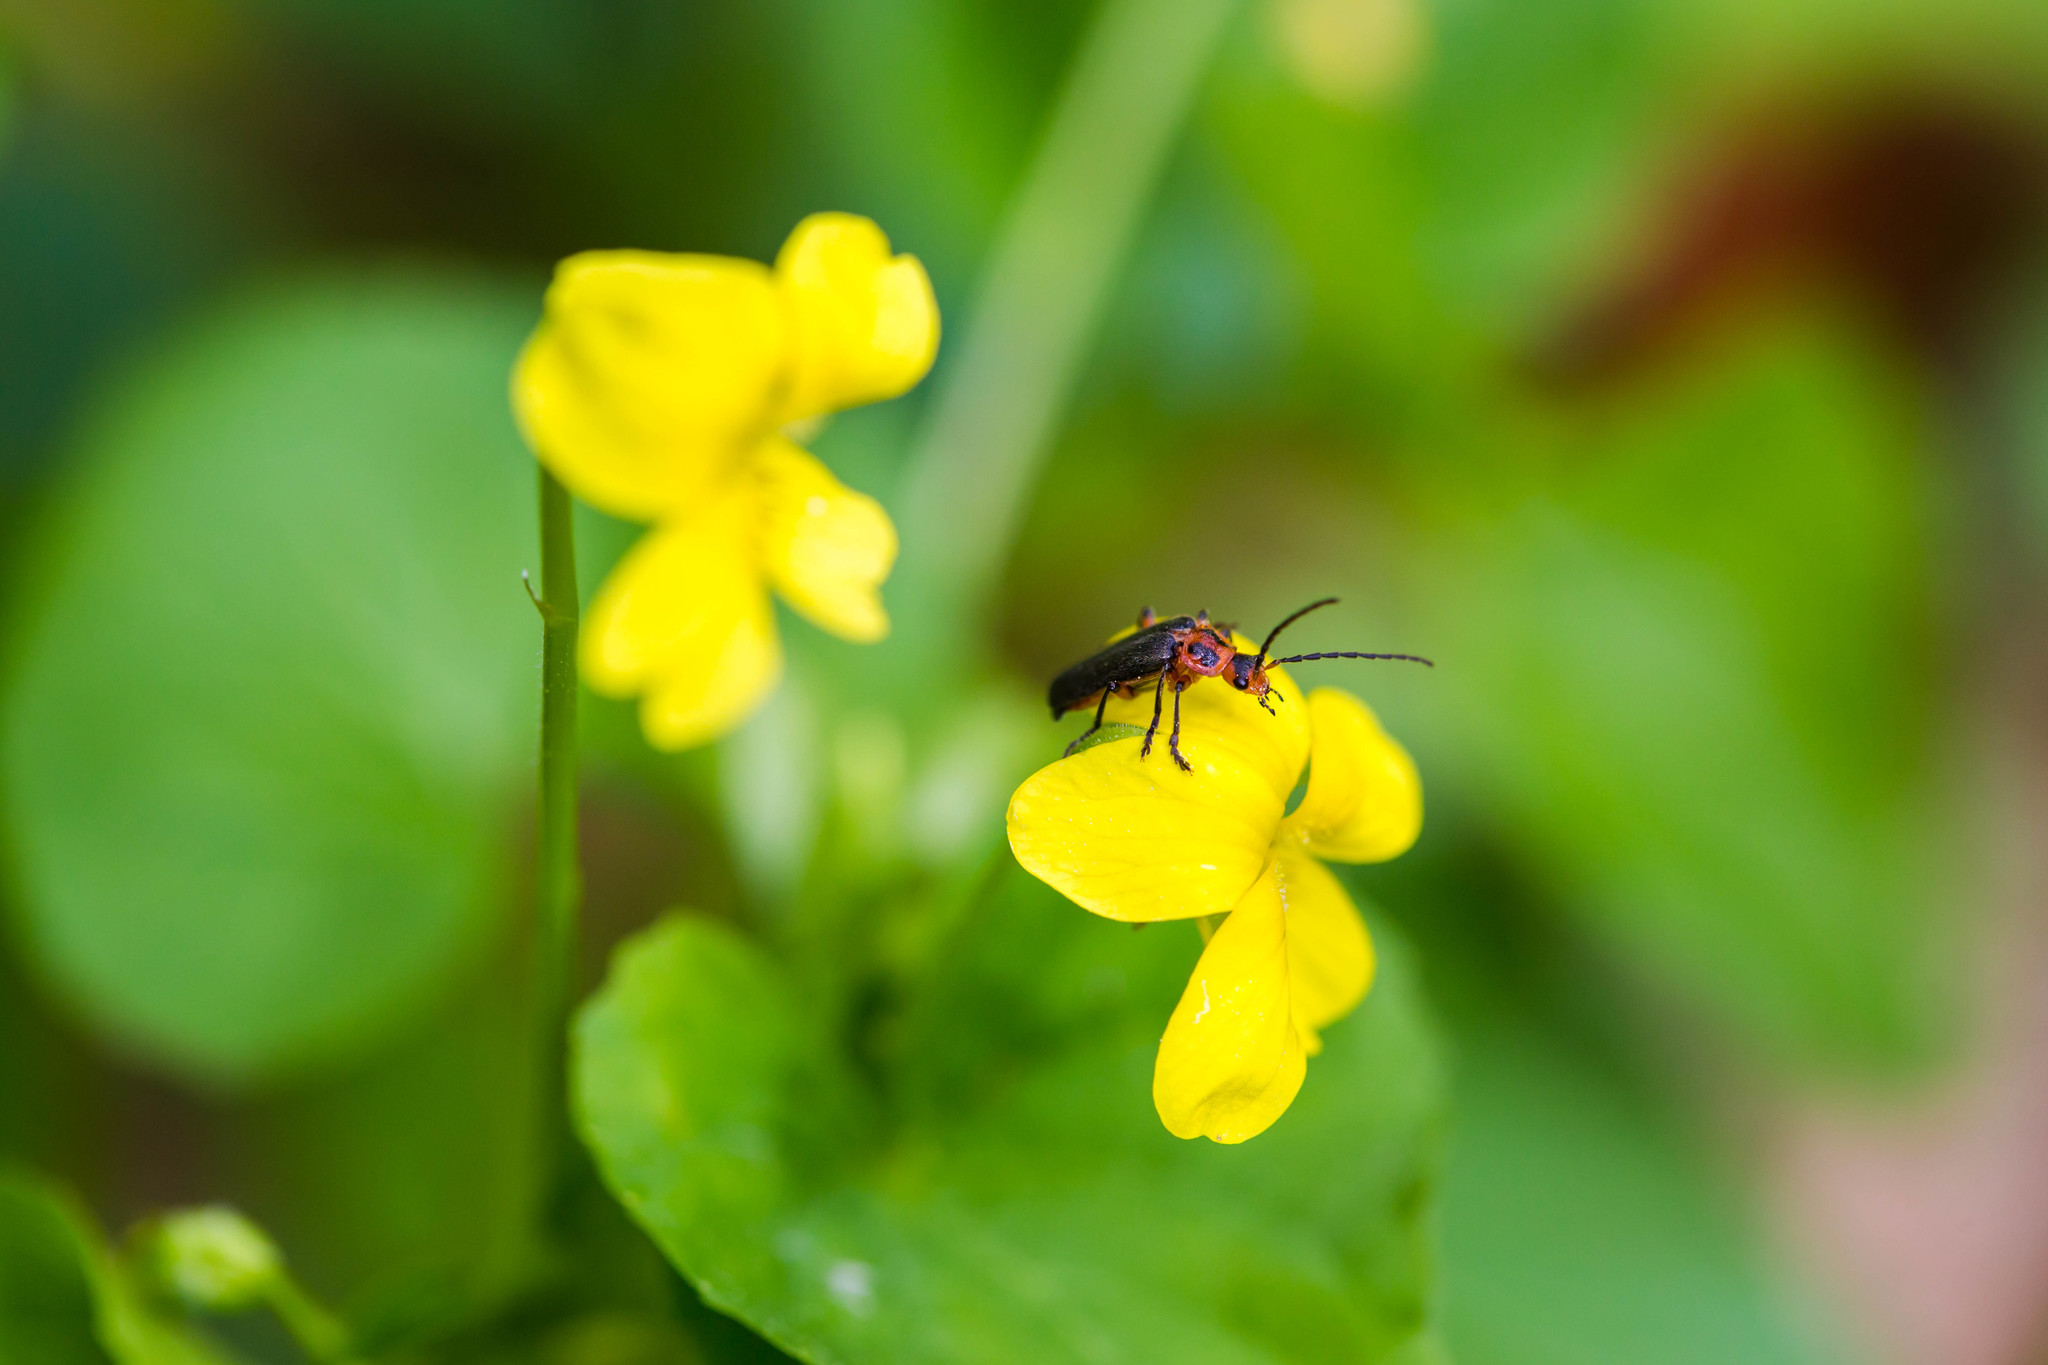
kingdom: Animalia
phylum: Arthropoda
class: Insecta
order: Coleoptera
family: Cantharidae
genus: Atalantycha
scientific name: Atalantycha bilineata
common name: Two-lined leatherwing
